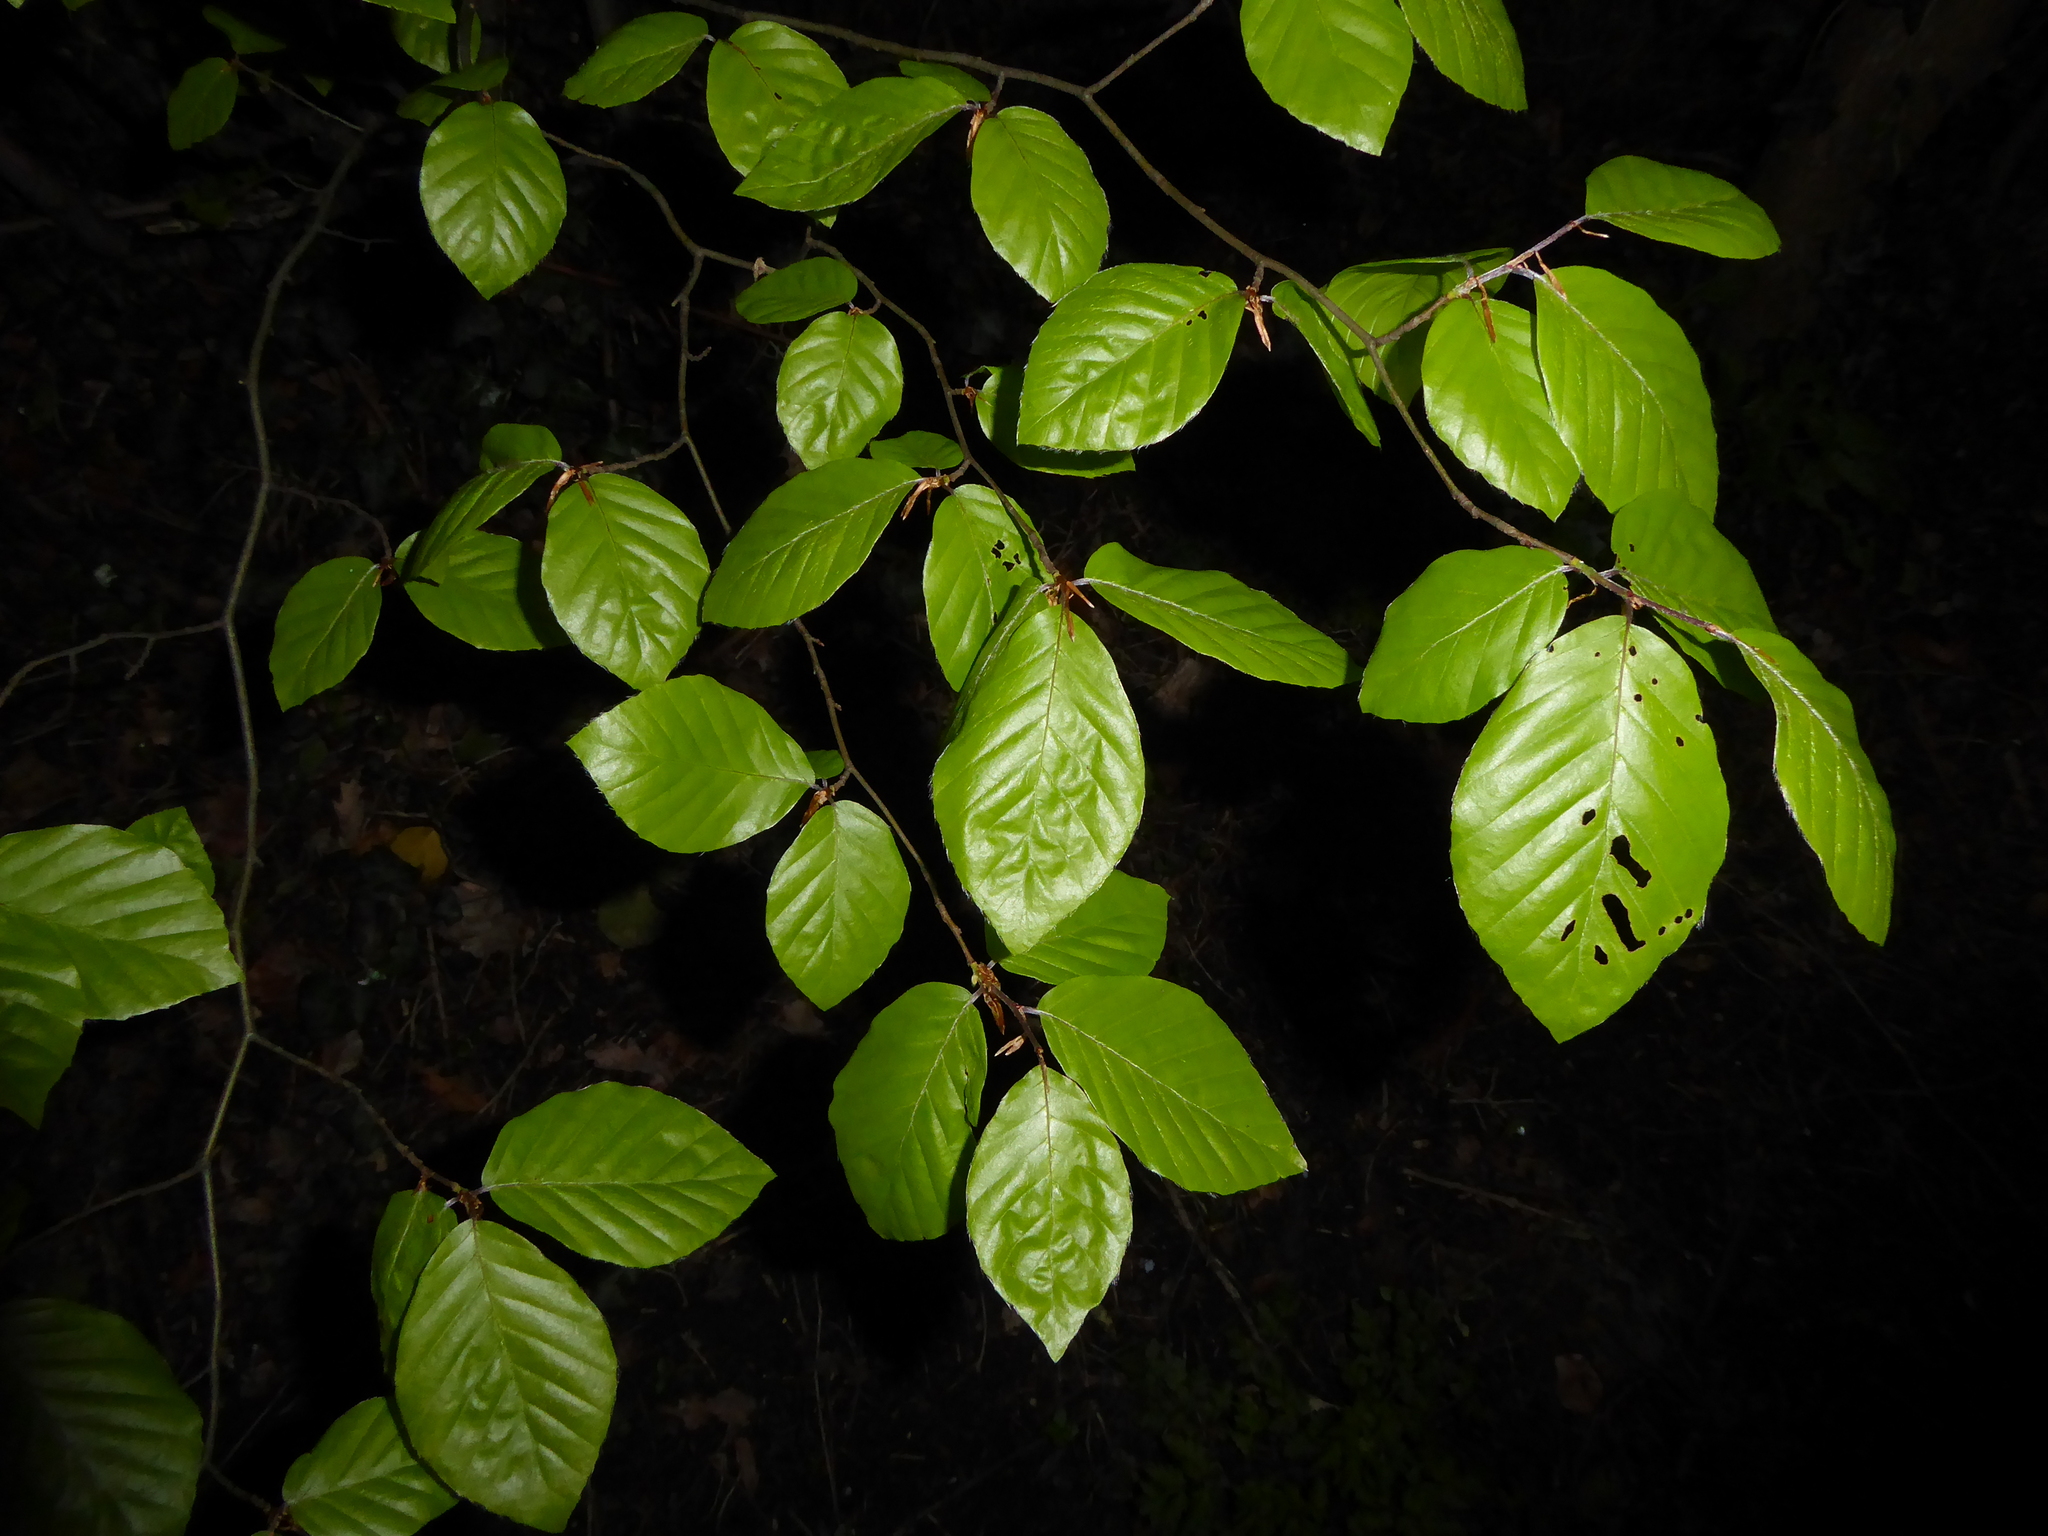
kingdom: Plantae
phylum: Tracheophyta
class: Magnoliopsida
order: Fagales
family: Fagaceae
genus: Fagus
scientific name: Fagus sylvatica
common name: Beech
